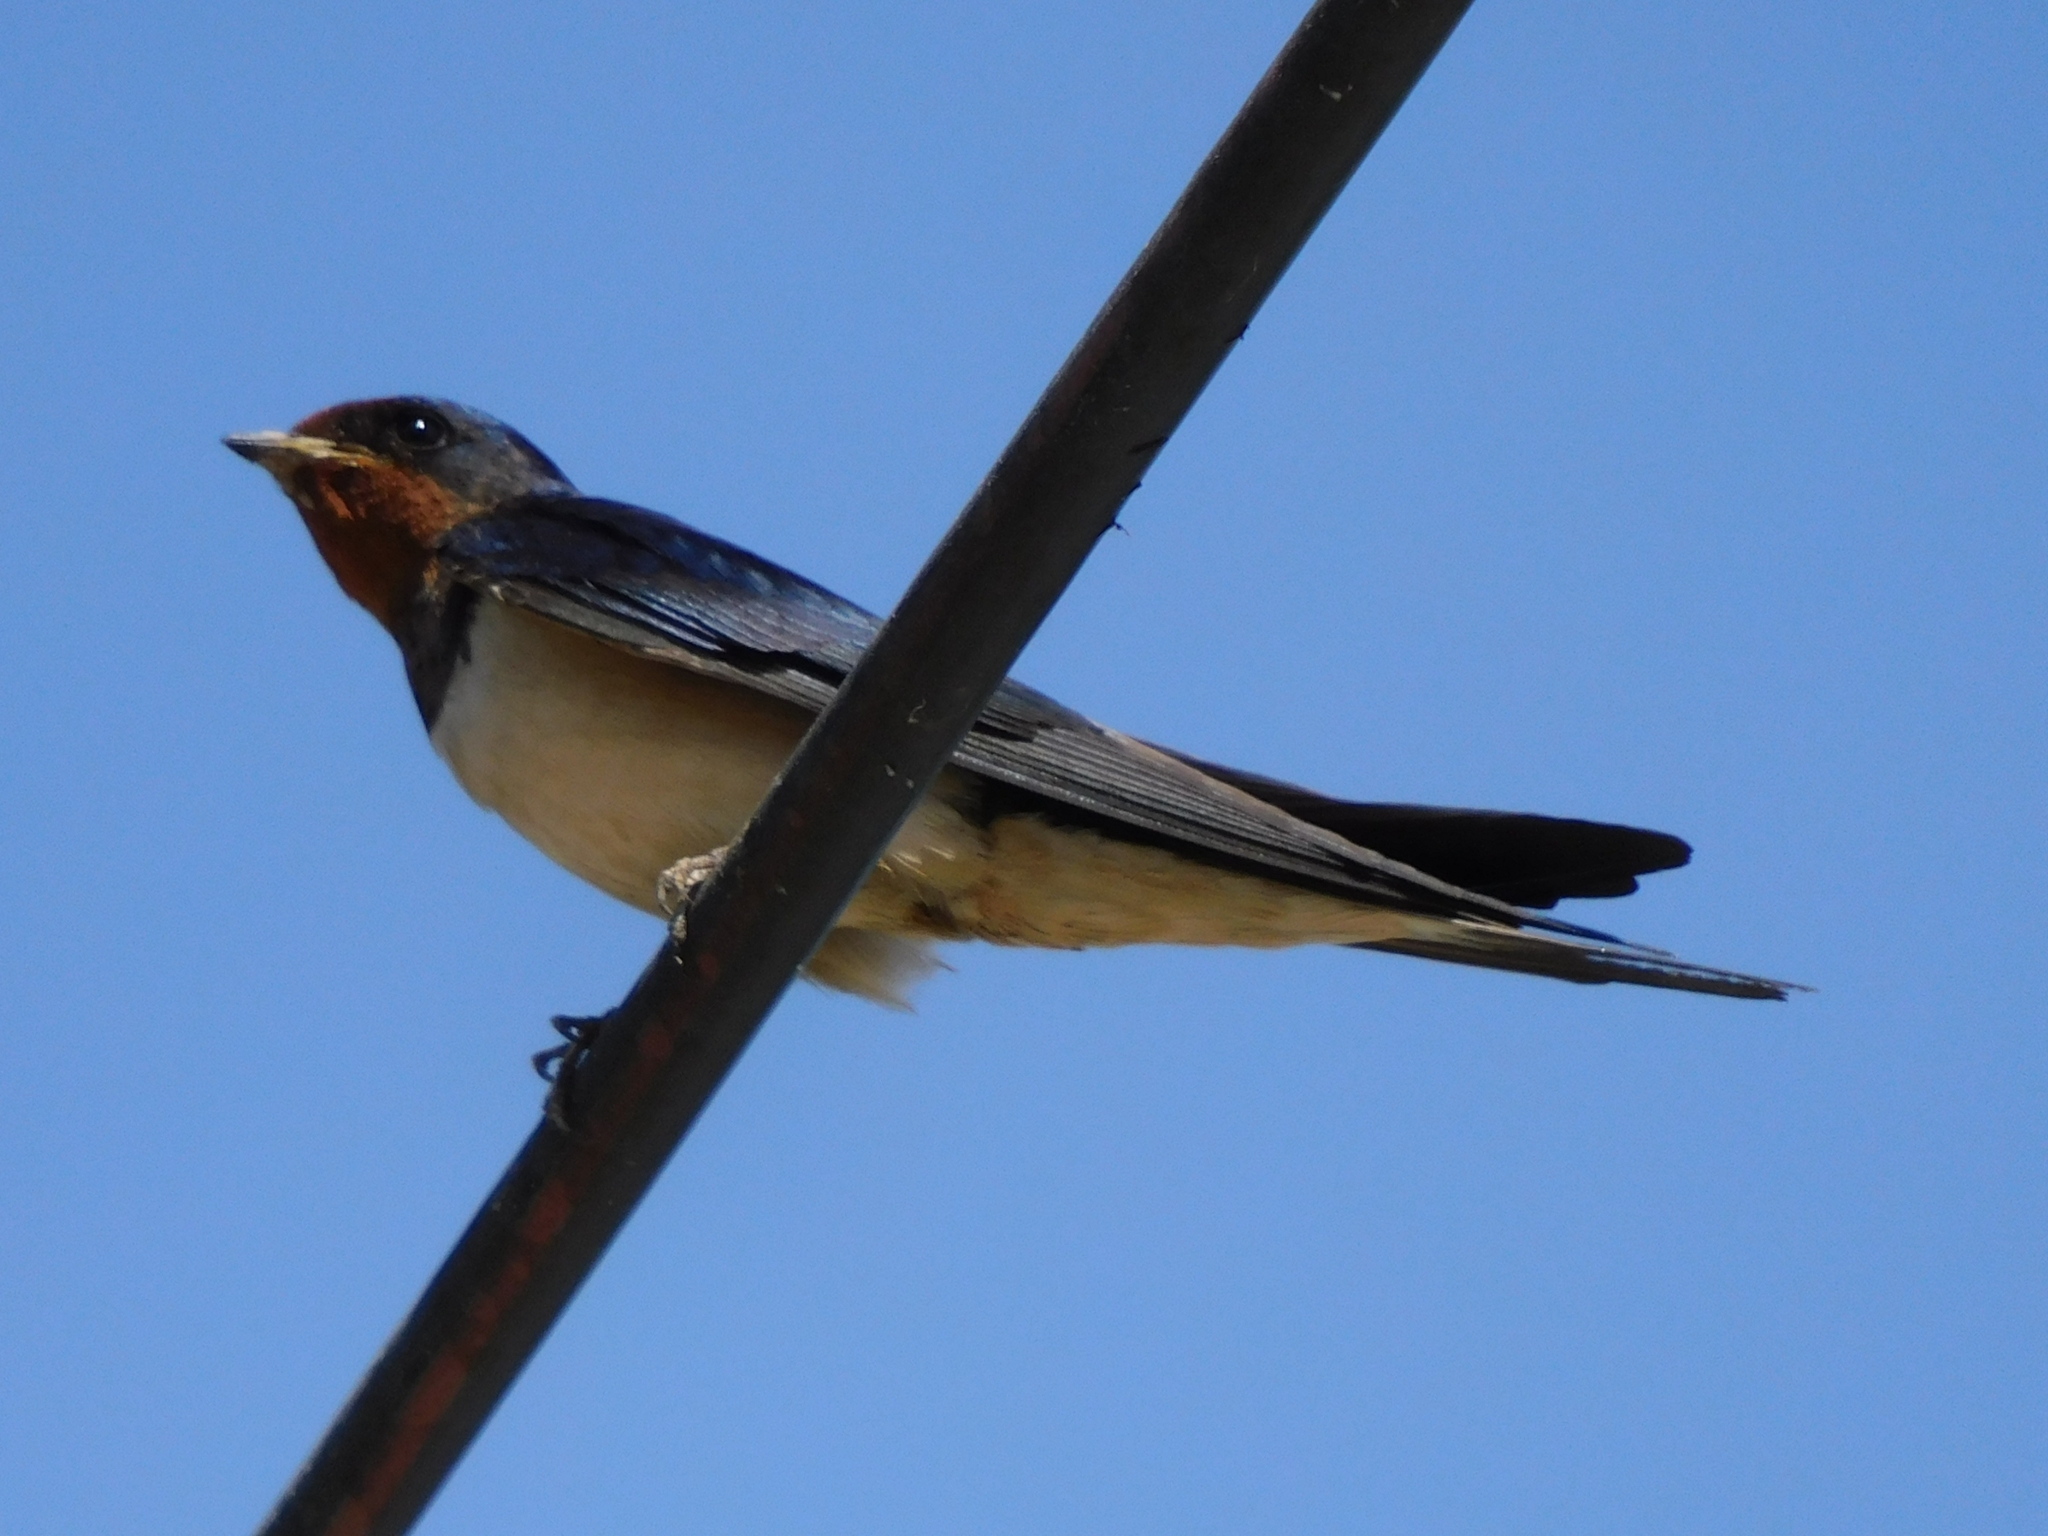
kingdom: Animalia
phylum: Chordata
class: Aves
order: Passeriformes
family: Hirundinidae
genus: Hirundo
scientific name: Hirundo rustica
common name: Barn swallow
